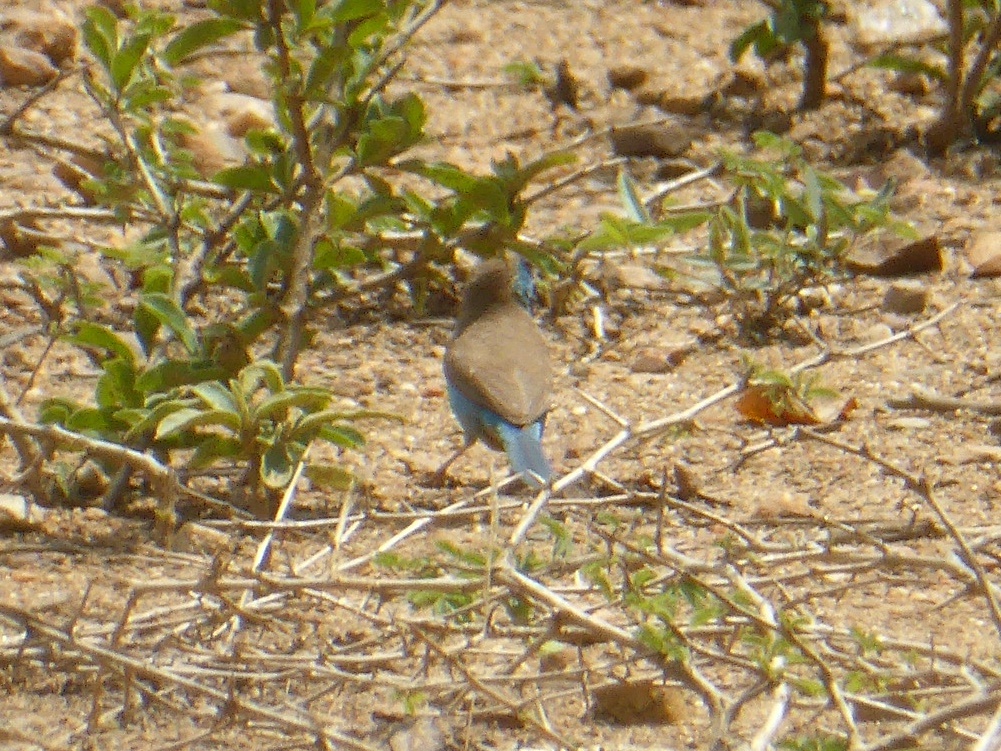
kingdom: Animalia
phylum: Chordata
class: Aves
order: Passeriformes
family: Estrildidae
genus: Uraeginthus
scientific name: Uraeginthus angolensis
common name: Blue waxbill
